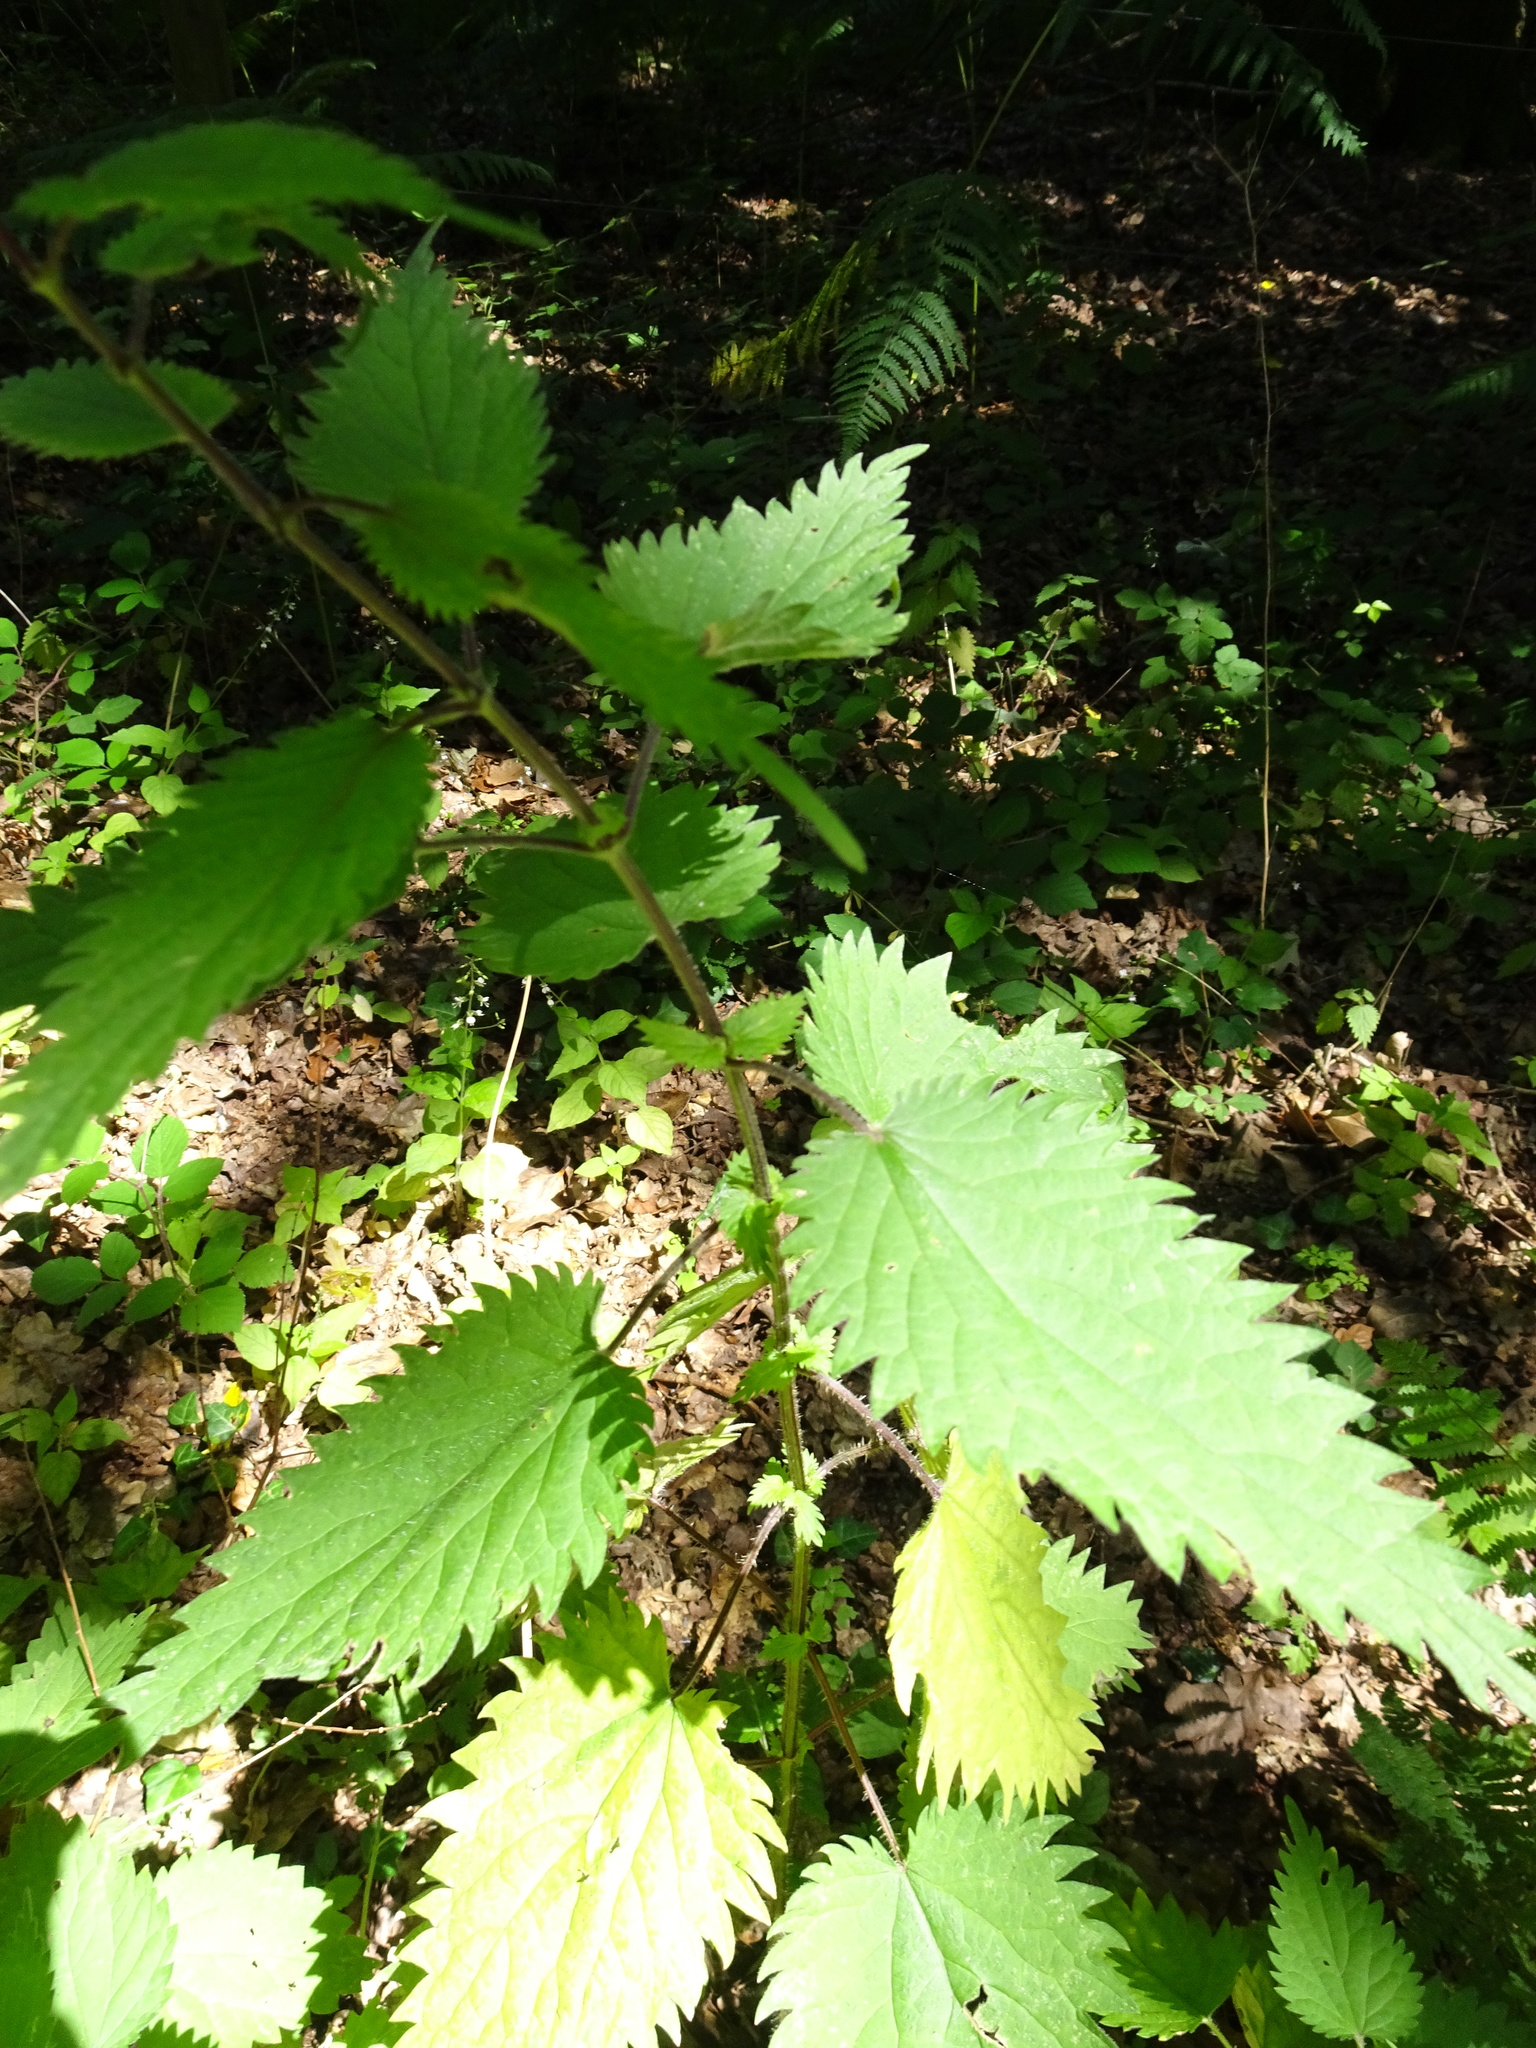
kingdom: Plantae
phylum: Tracheophyta
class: Magnoliopsida
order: Rosales
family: Urticaceae
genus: Urtica
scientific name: Urtica dioica
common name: Common nettle
